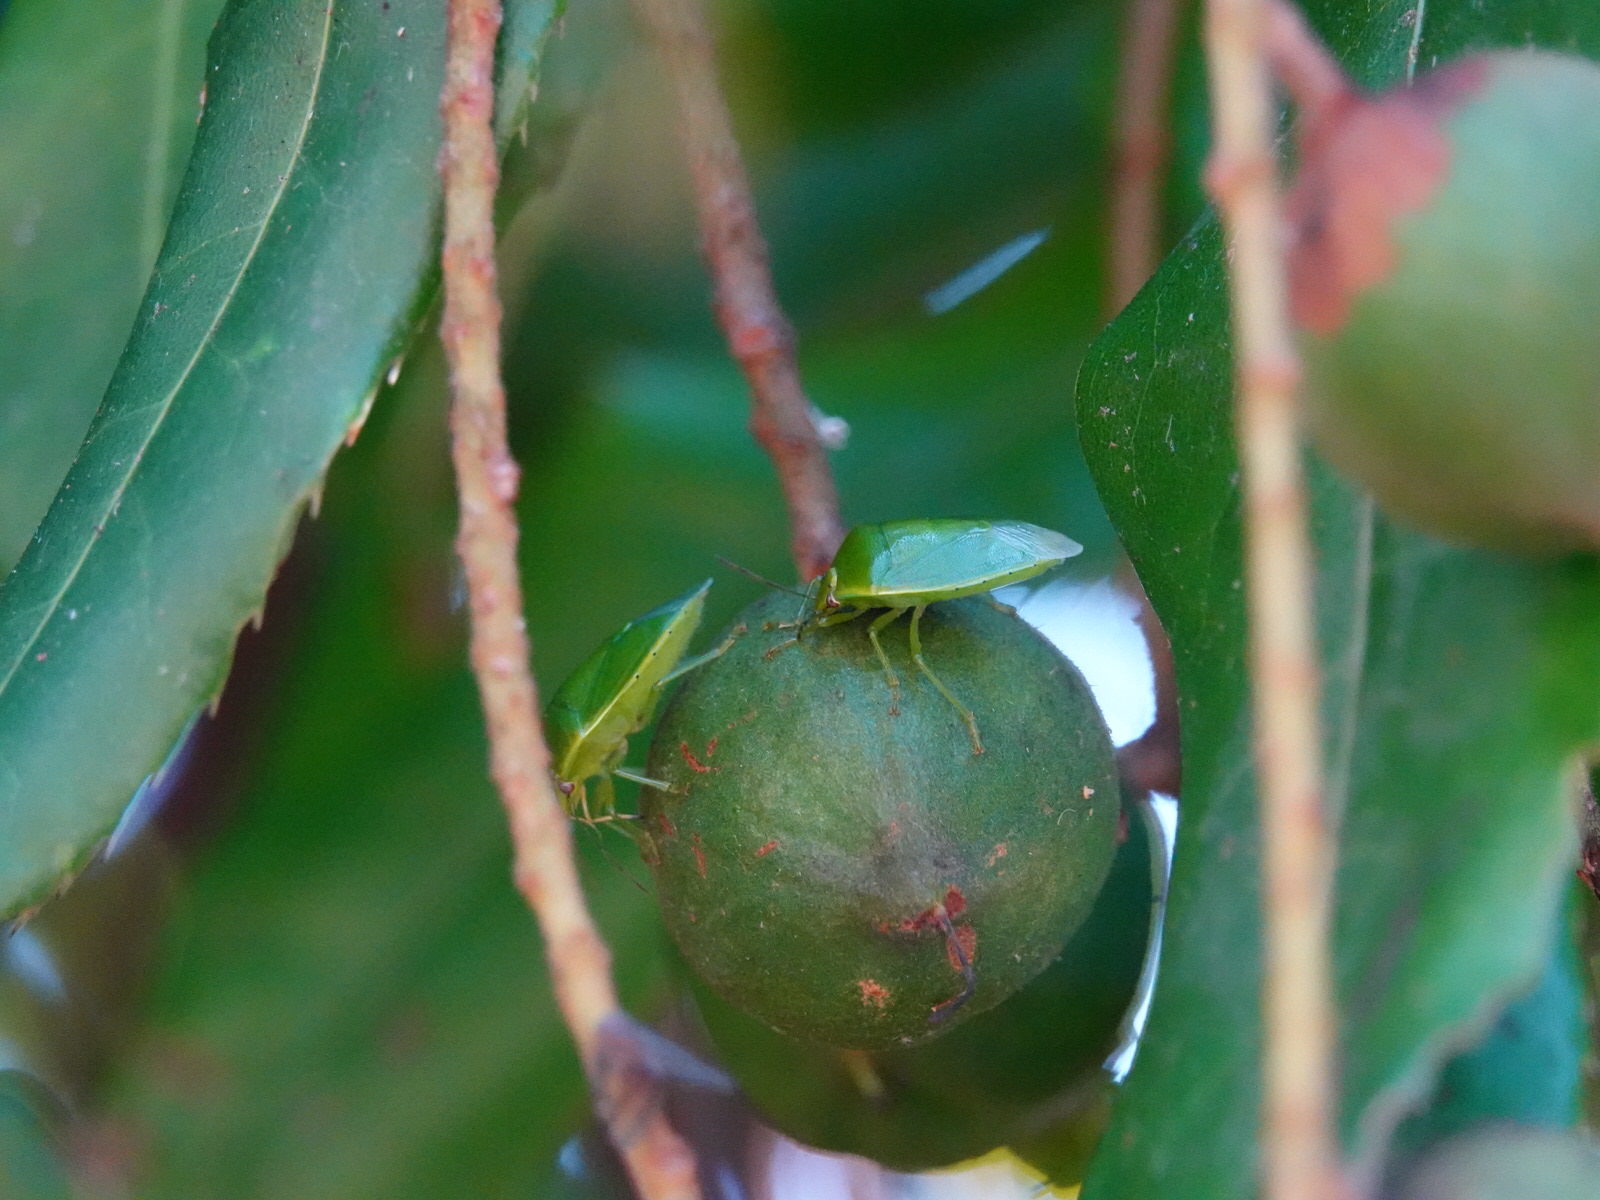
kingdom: Animalia
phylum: Arthropoda
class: Insecta
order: Hemiptera
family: Pentatomidae
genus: Glaucias
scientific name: Glaucias amyota
